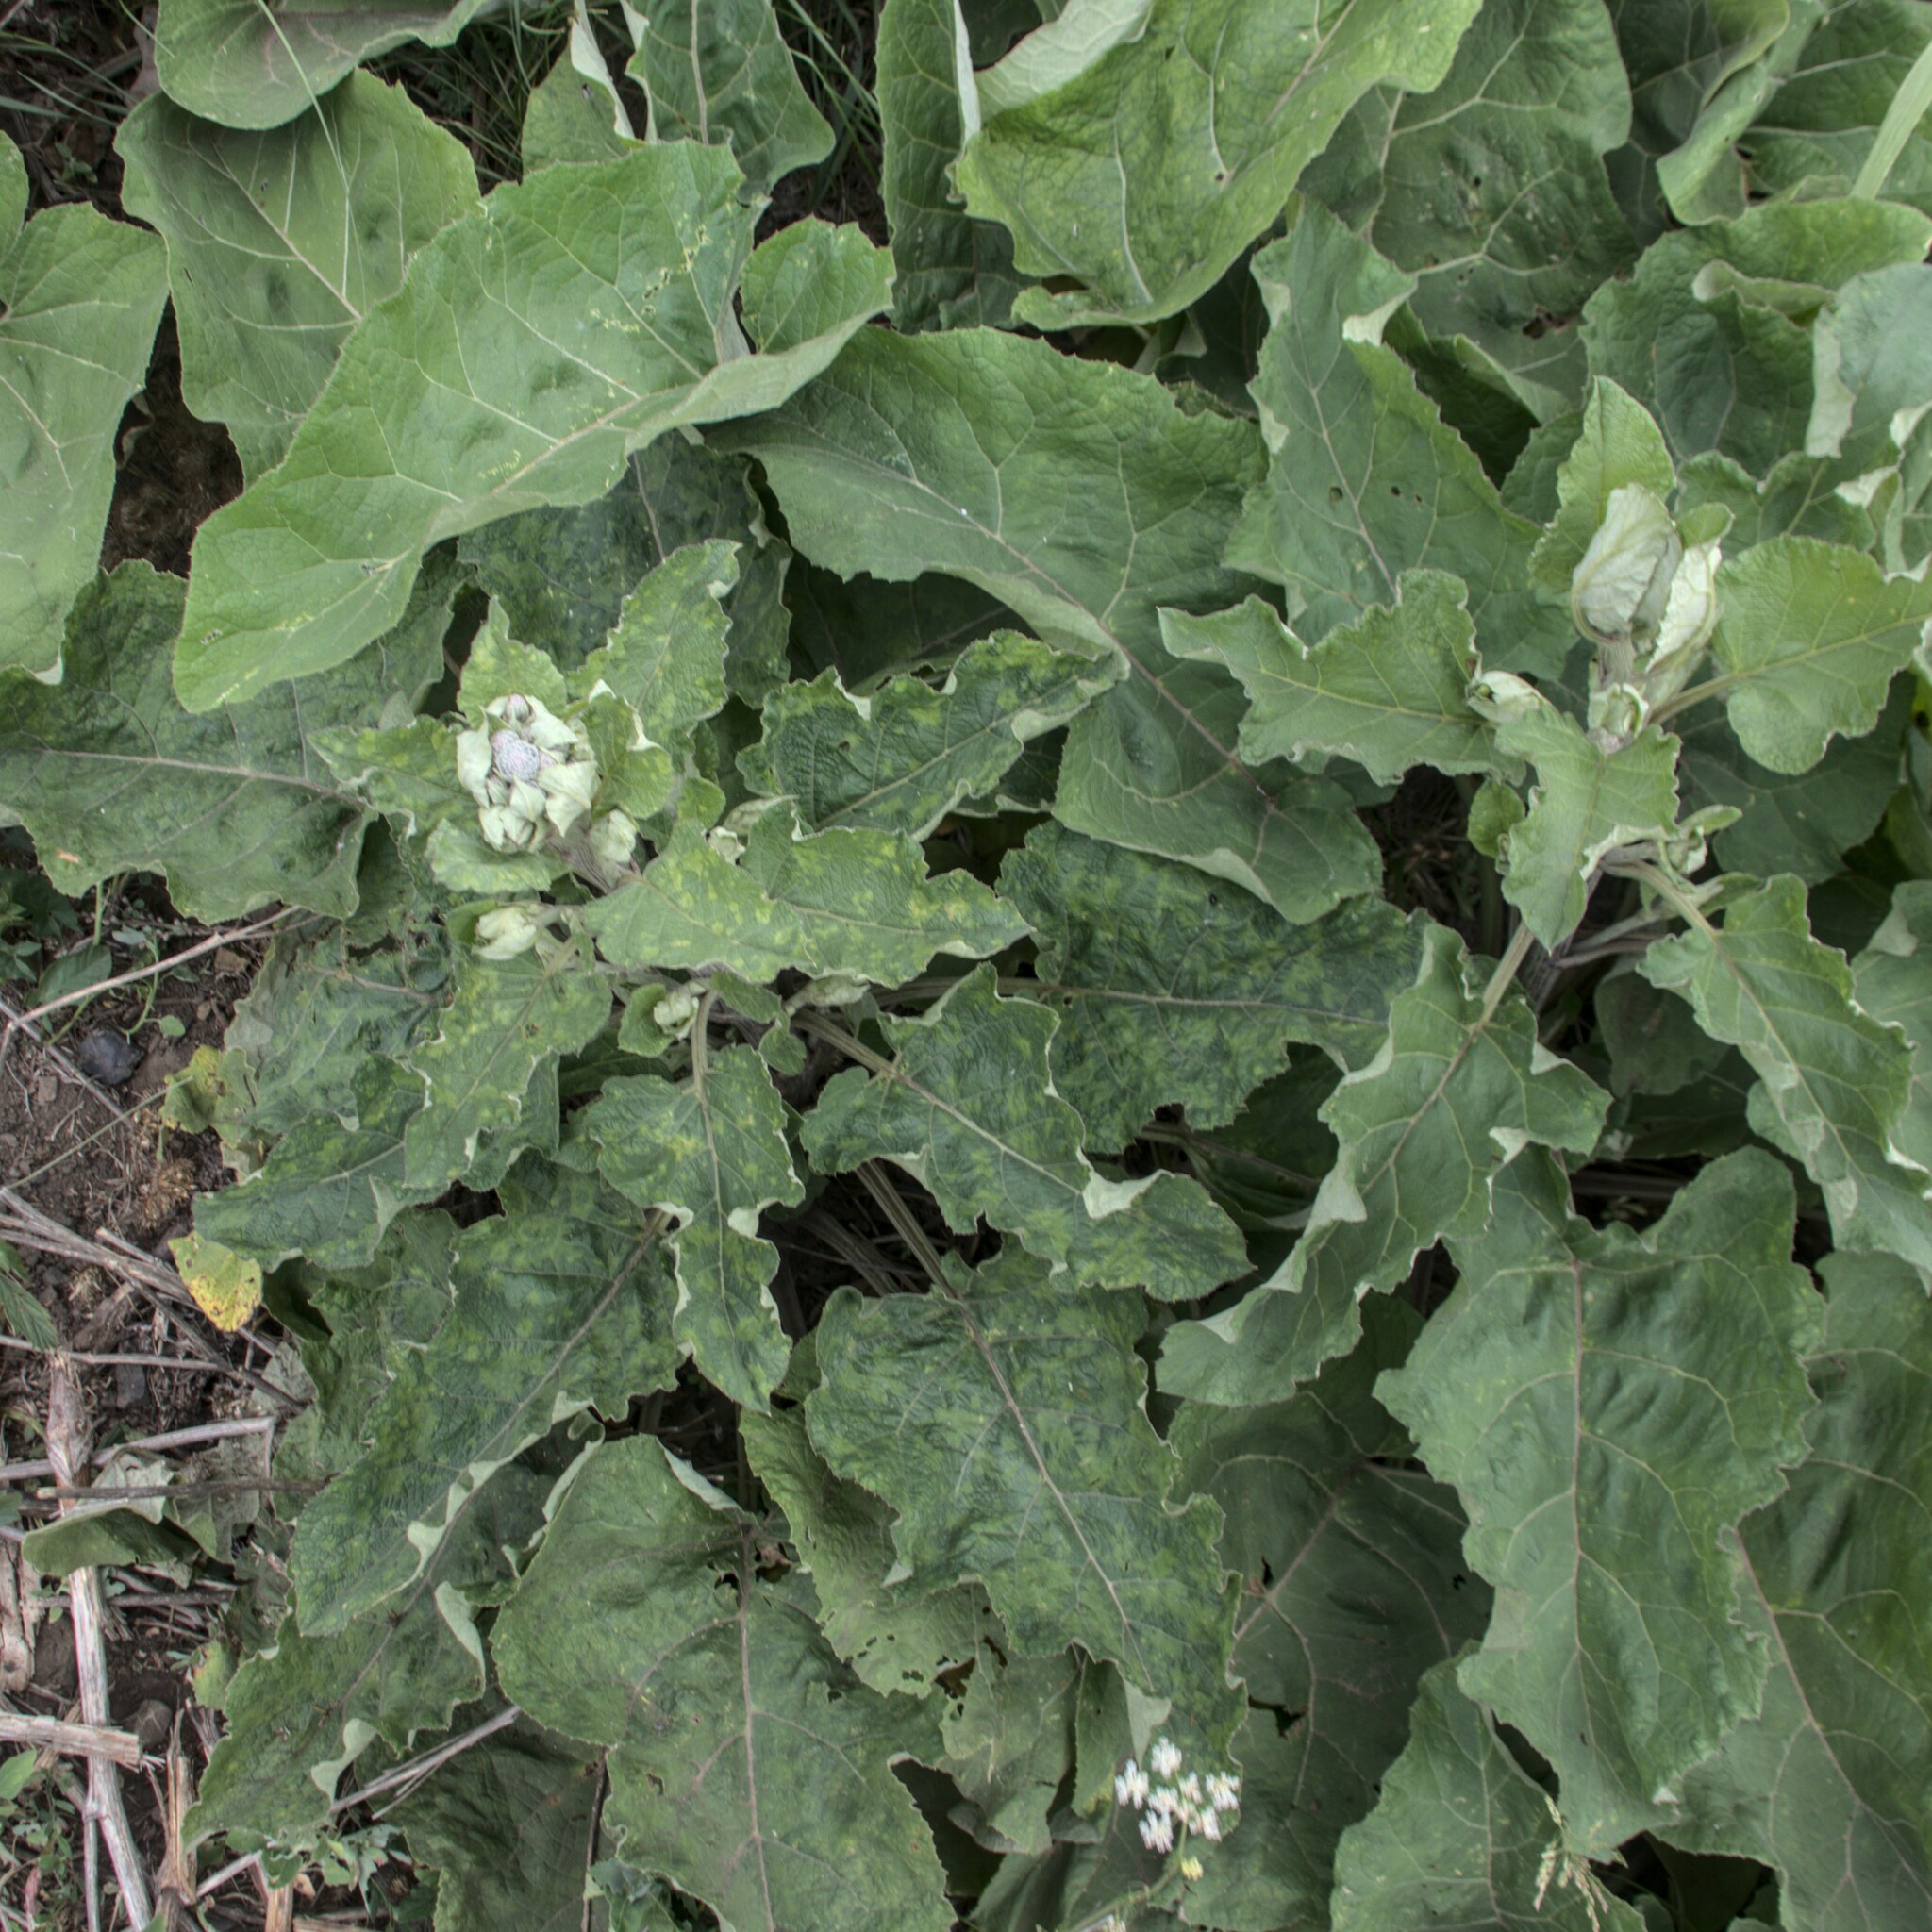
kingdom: Plantae
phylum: Tracheophyta
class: Magnoliopsida
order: Asterales
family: Asteraceae
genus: Arctium
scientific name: Arctium tomentosum
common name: Woolly burdock
